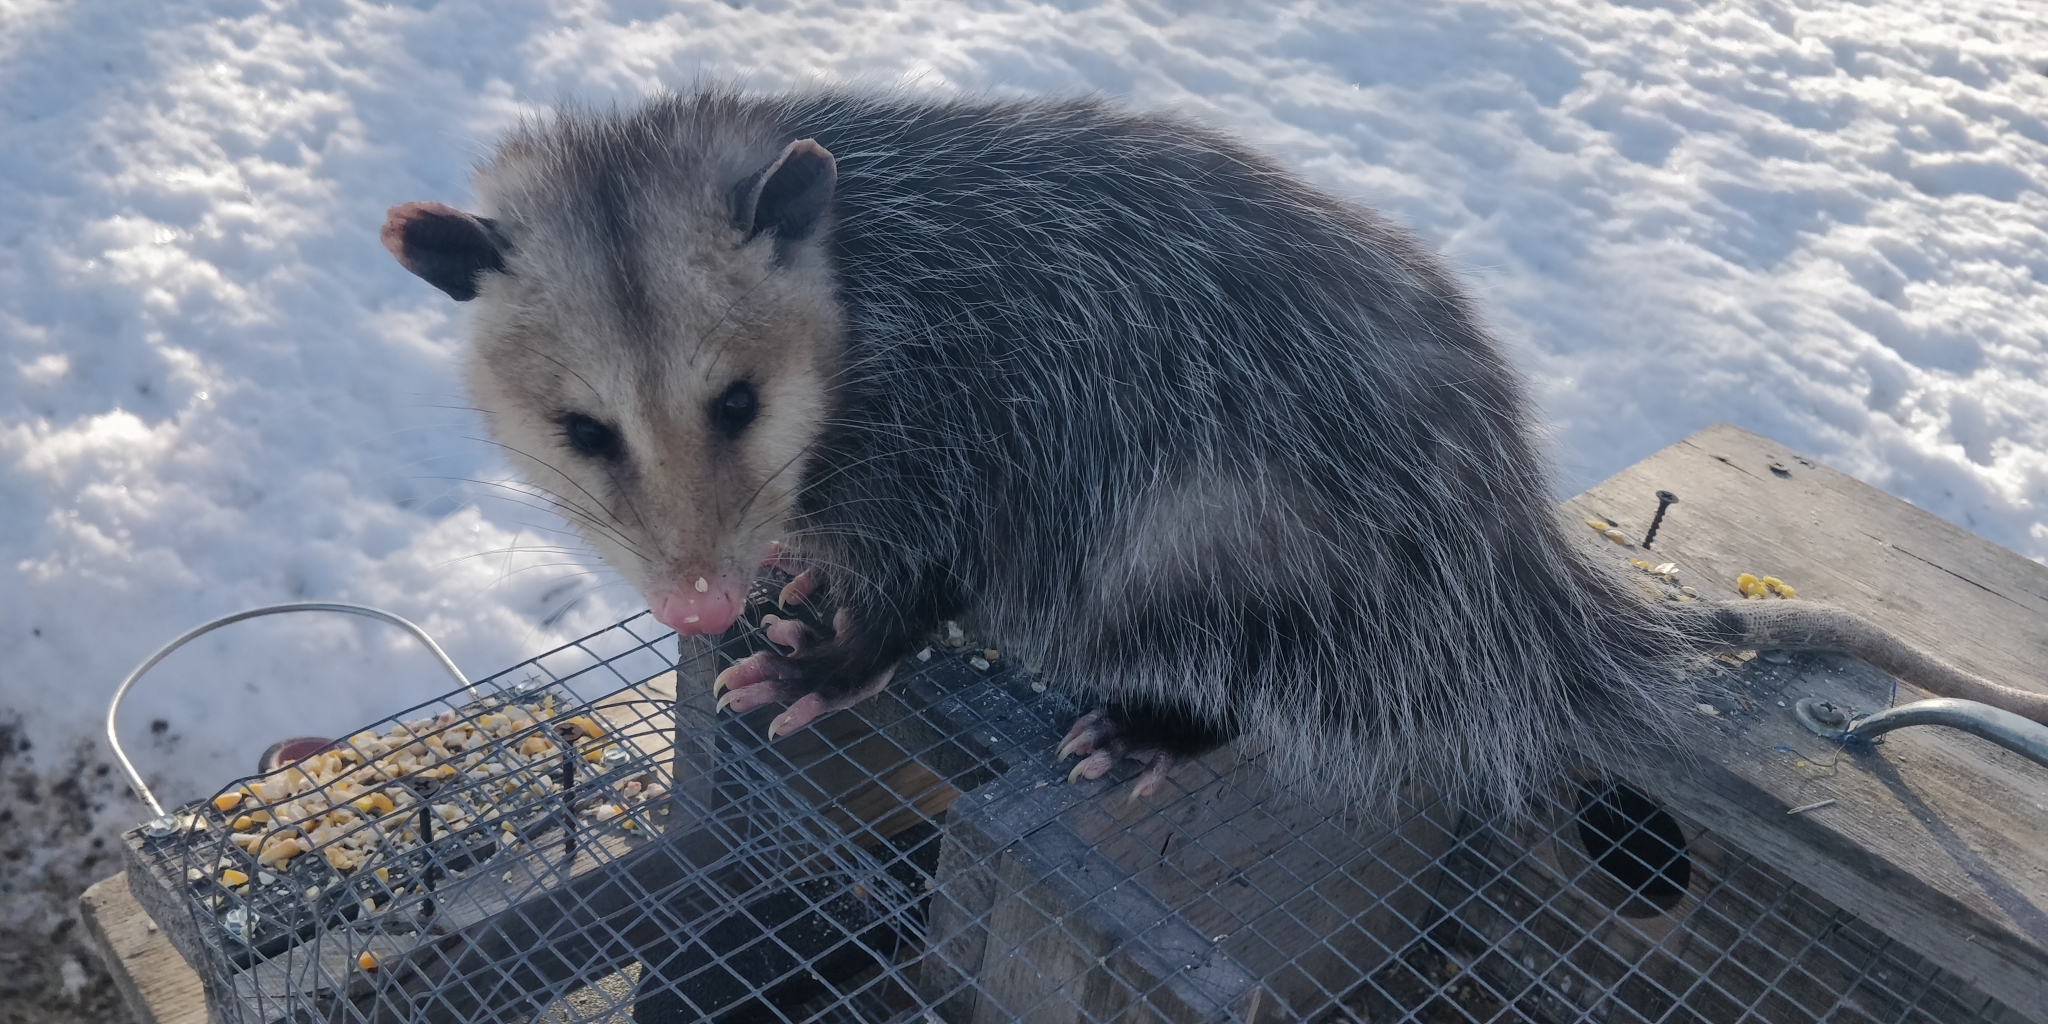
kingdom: Animalia
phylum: Chordata
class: Mammalia
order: Didelphimorphia
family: Didelphidae
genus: Didelphis
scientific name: Didelphis virginiana
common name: Virginia opossum
